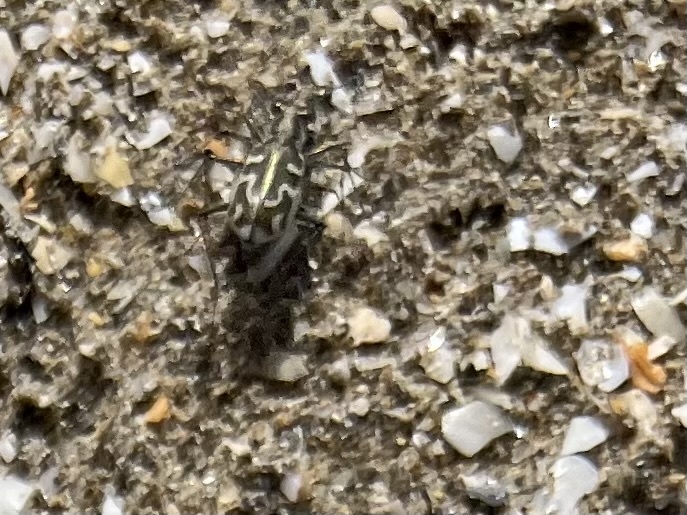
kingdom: Animalia
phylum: Arthropoda
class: Insecta
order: Coleoptera
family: Carabidae
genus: Cylindera
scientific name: Cylindera trisignata
